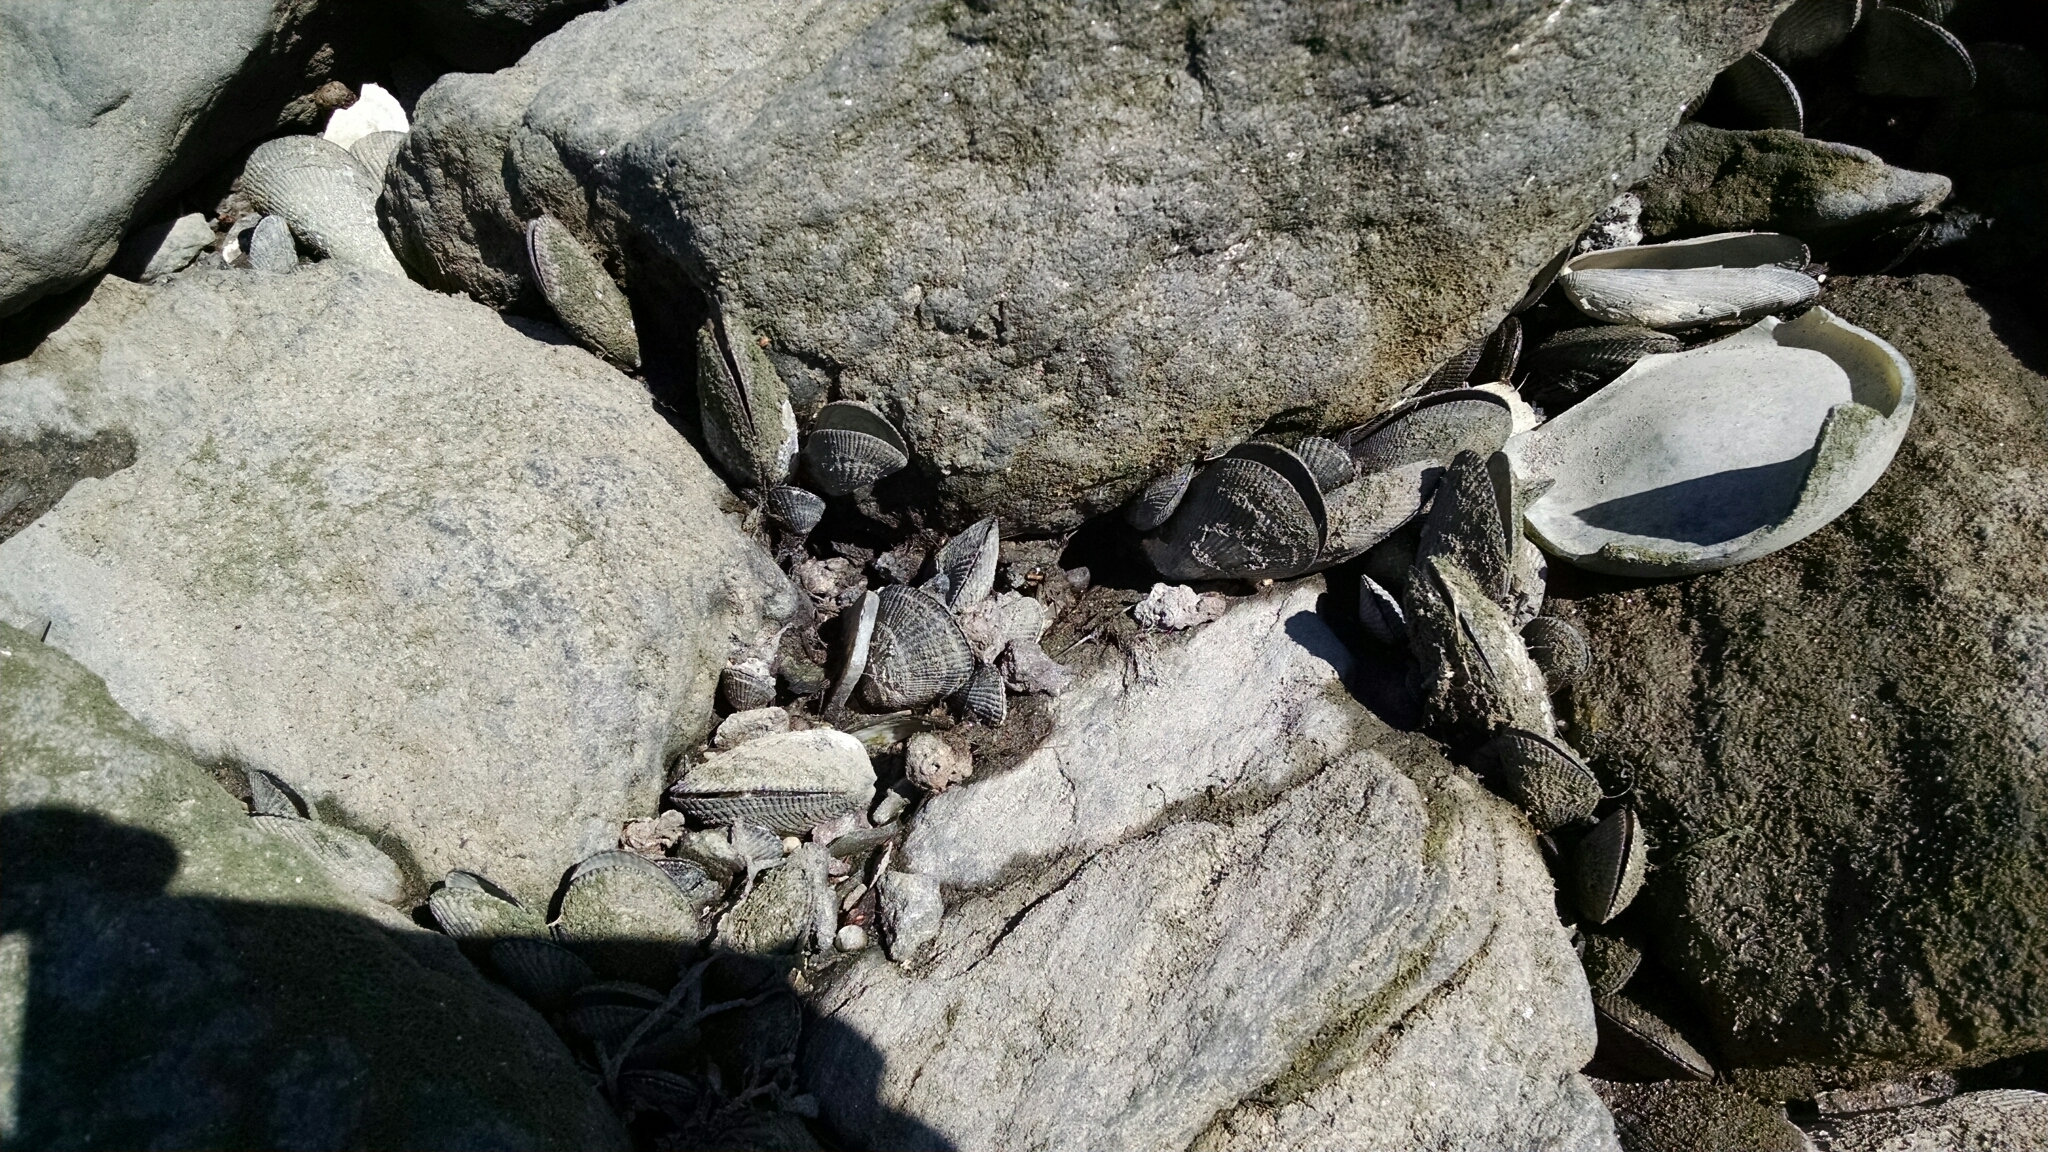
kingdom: Animalia
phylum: Mollusca
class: Bivalvia
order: Mytilida
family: Mytilidae
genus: Geukensia
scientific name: Geukensia demissa
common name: Ribbed mussel
